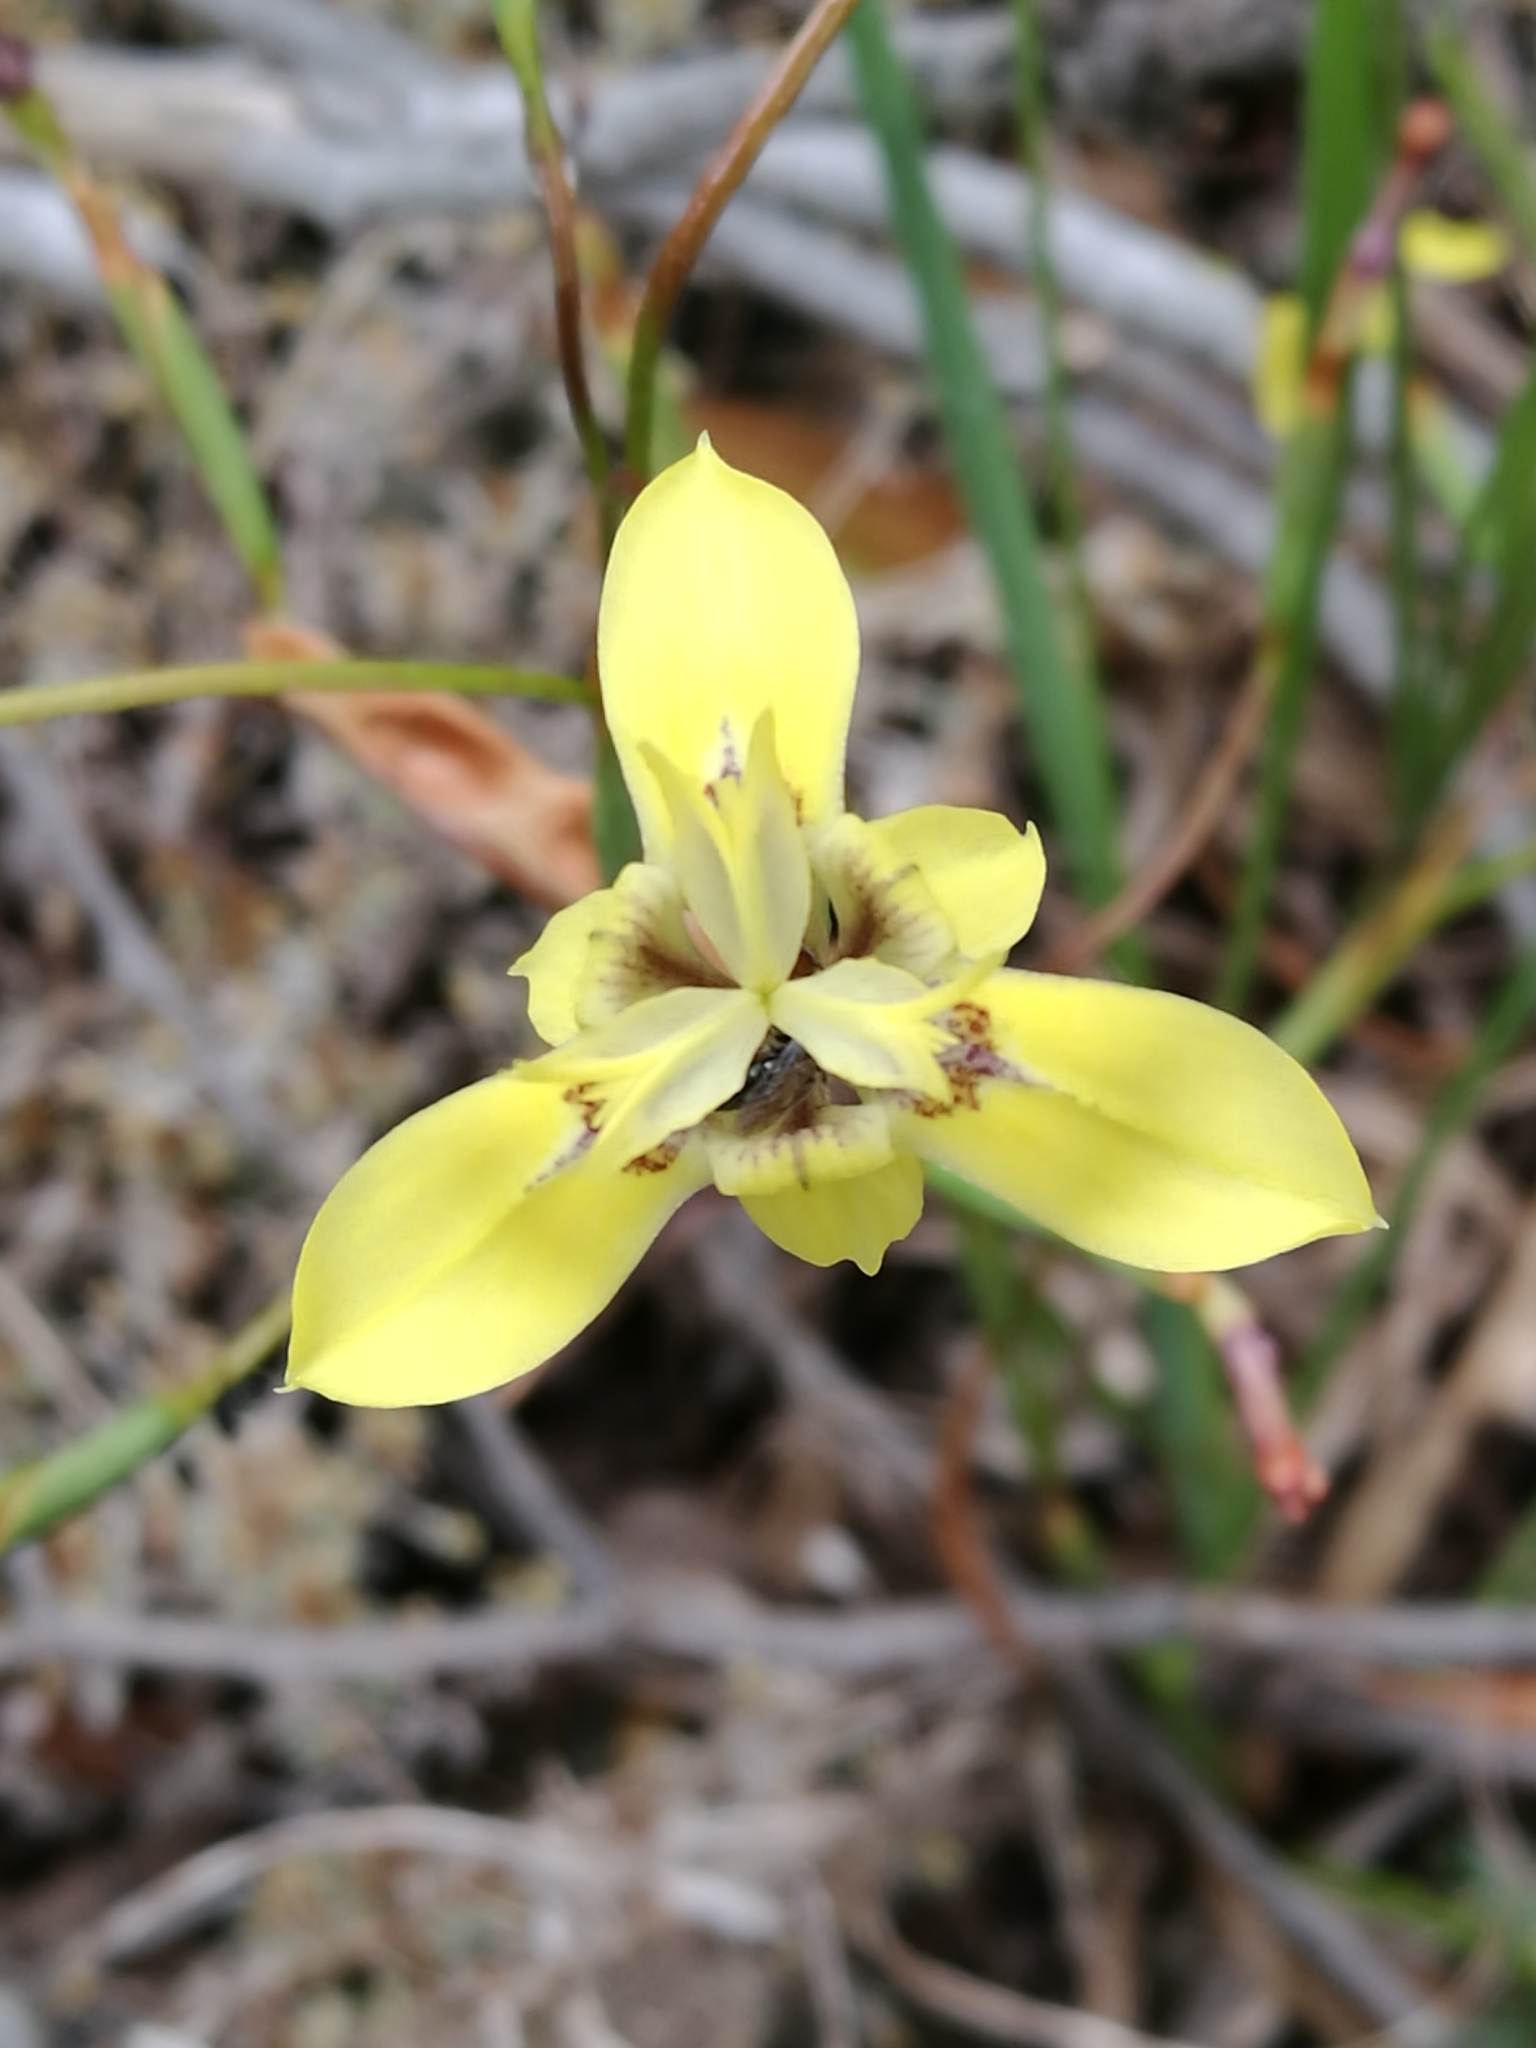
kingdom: Plantae
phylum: Tracheophyta
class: Liliopsida
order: Asparagales
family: Iridaceae
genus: Moraea
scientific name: Moraea inconspicua
